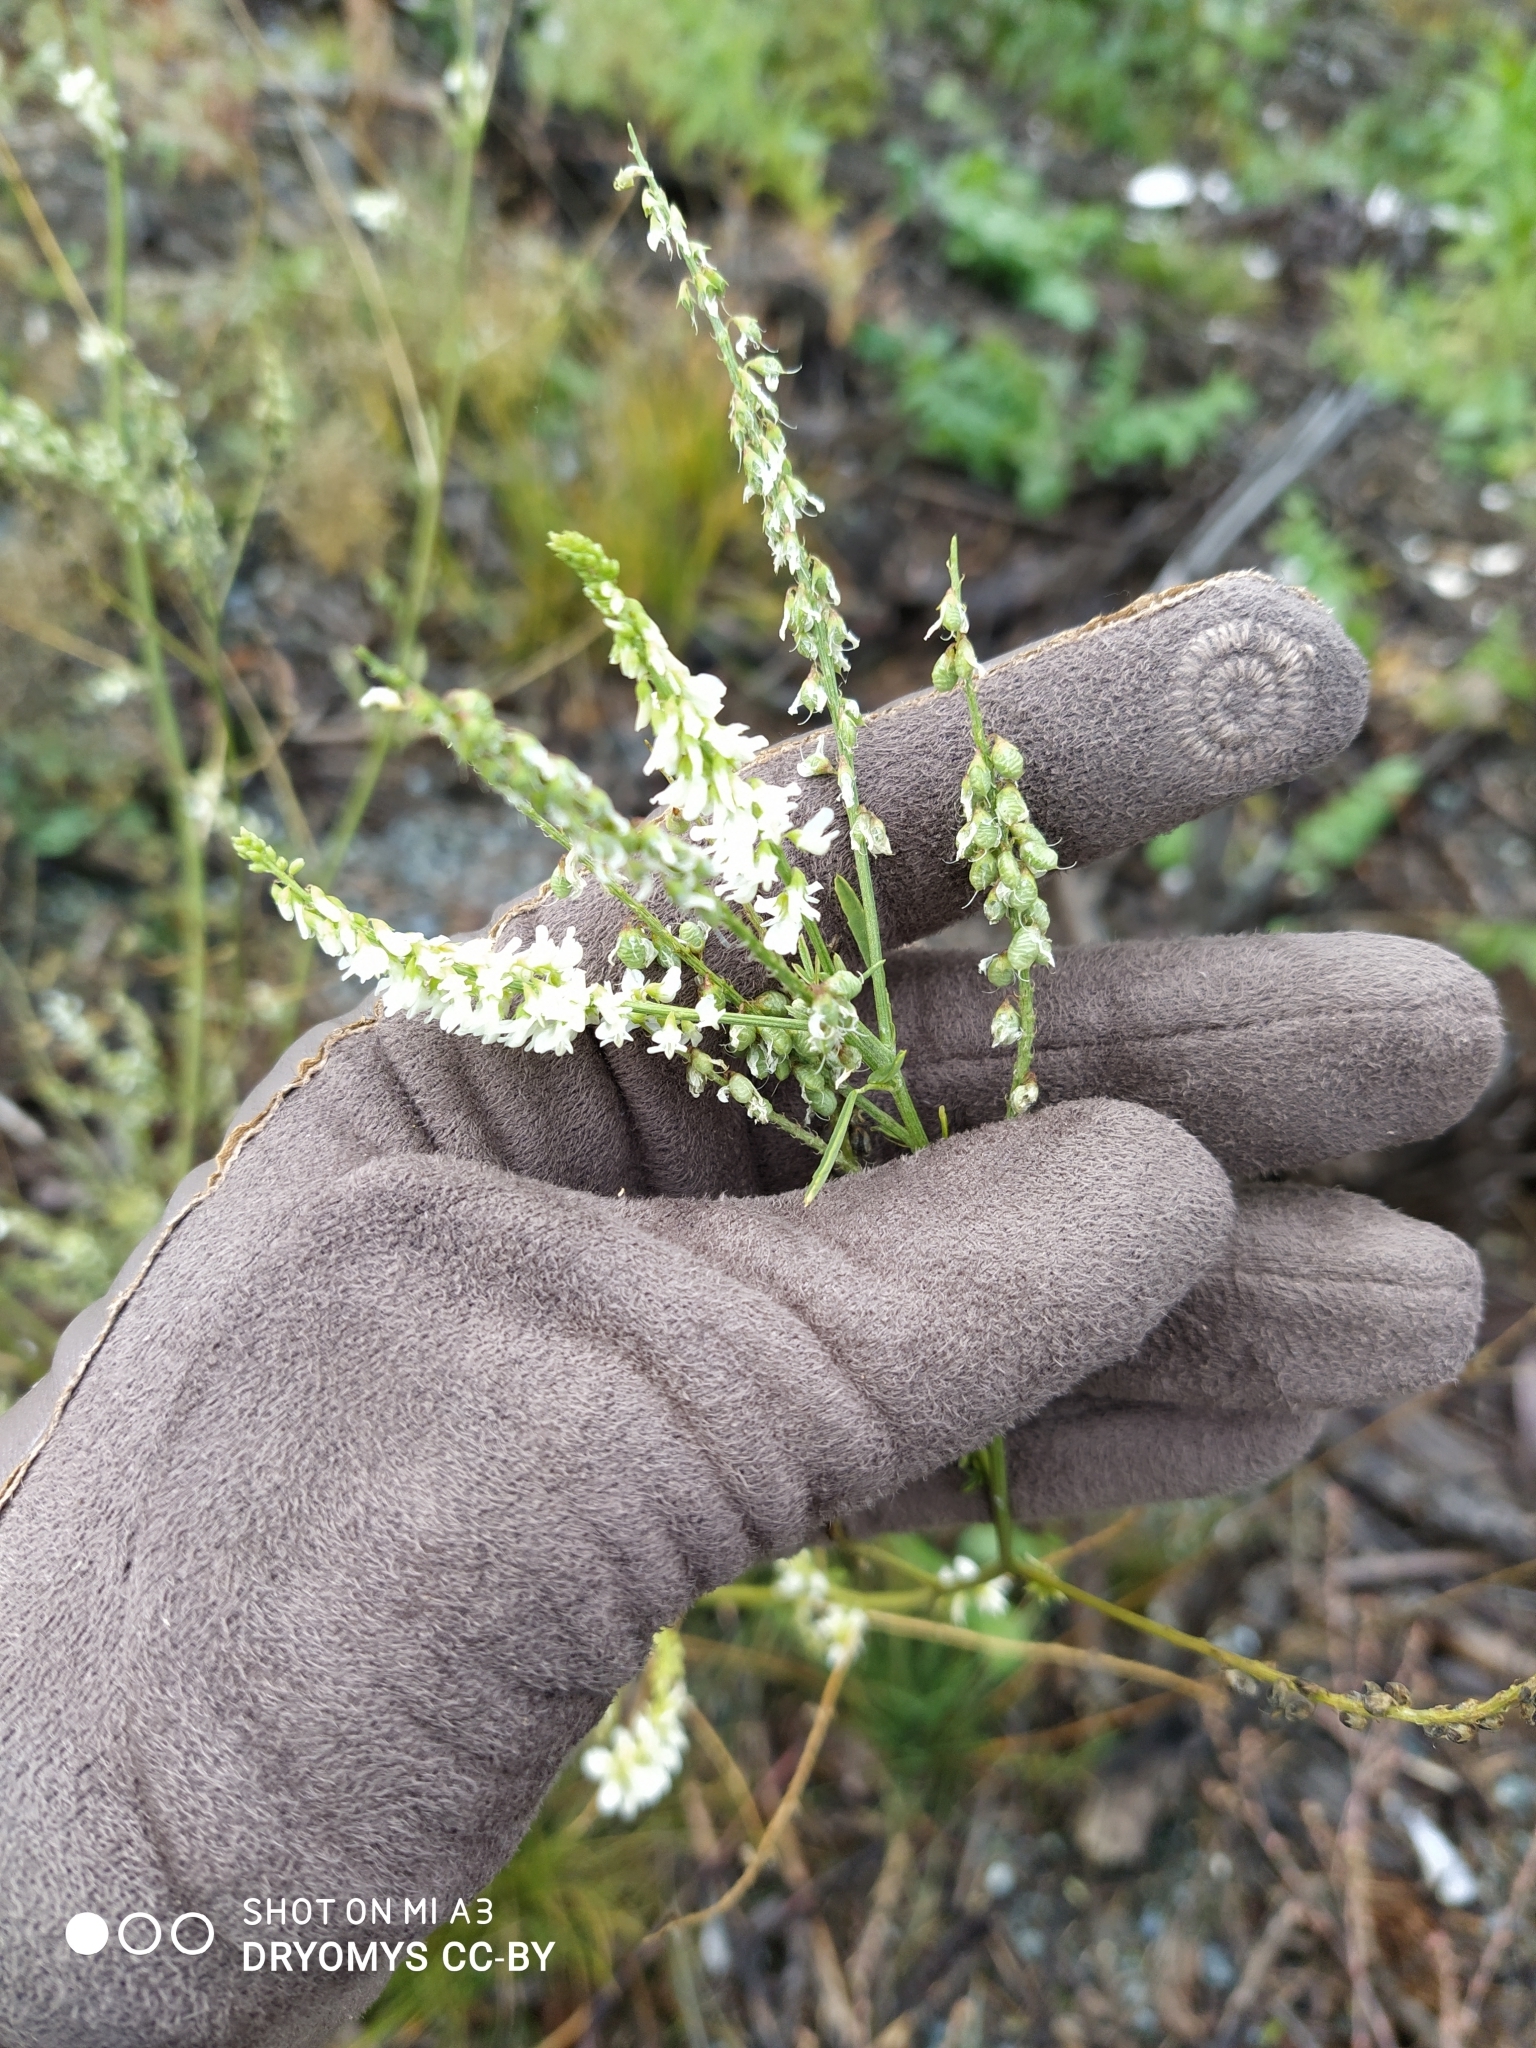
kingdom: Plantae
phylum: Tracheophyta
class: Magnoliopsida
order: Fabales
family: Fabaceae
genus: Melilotus
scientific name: Melilotus albus
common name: White melilot
